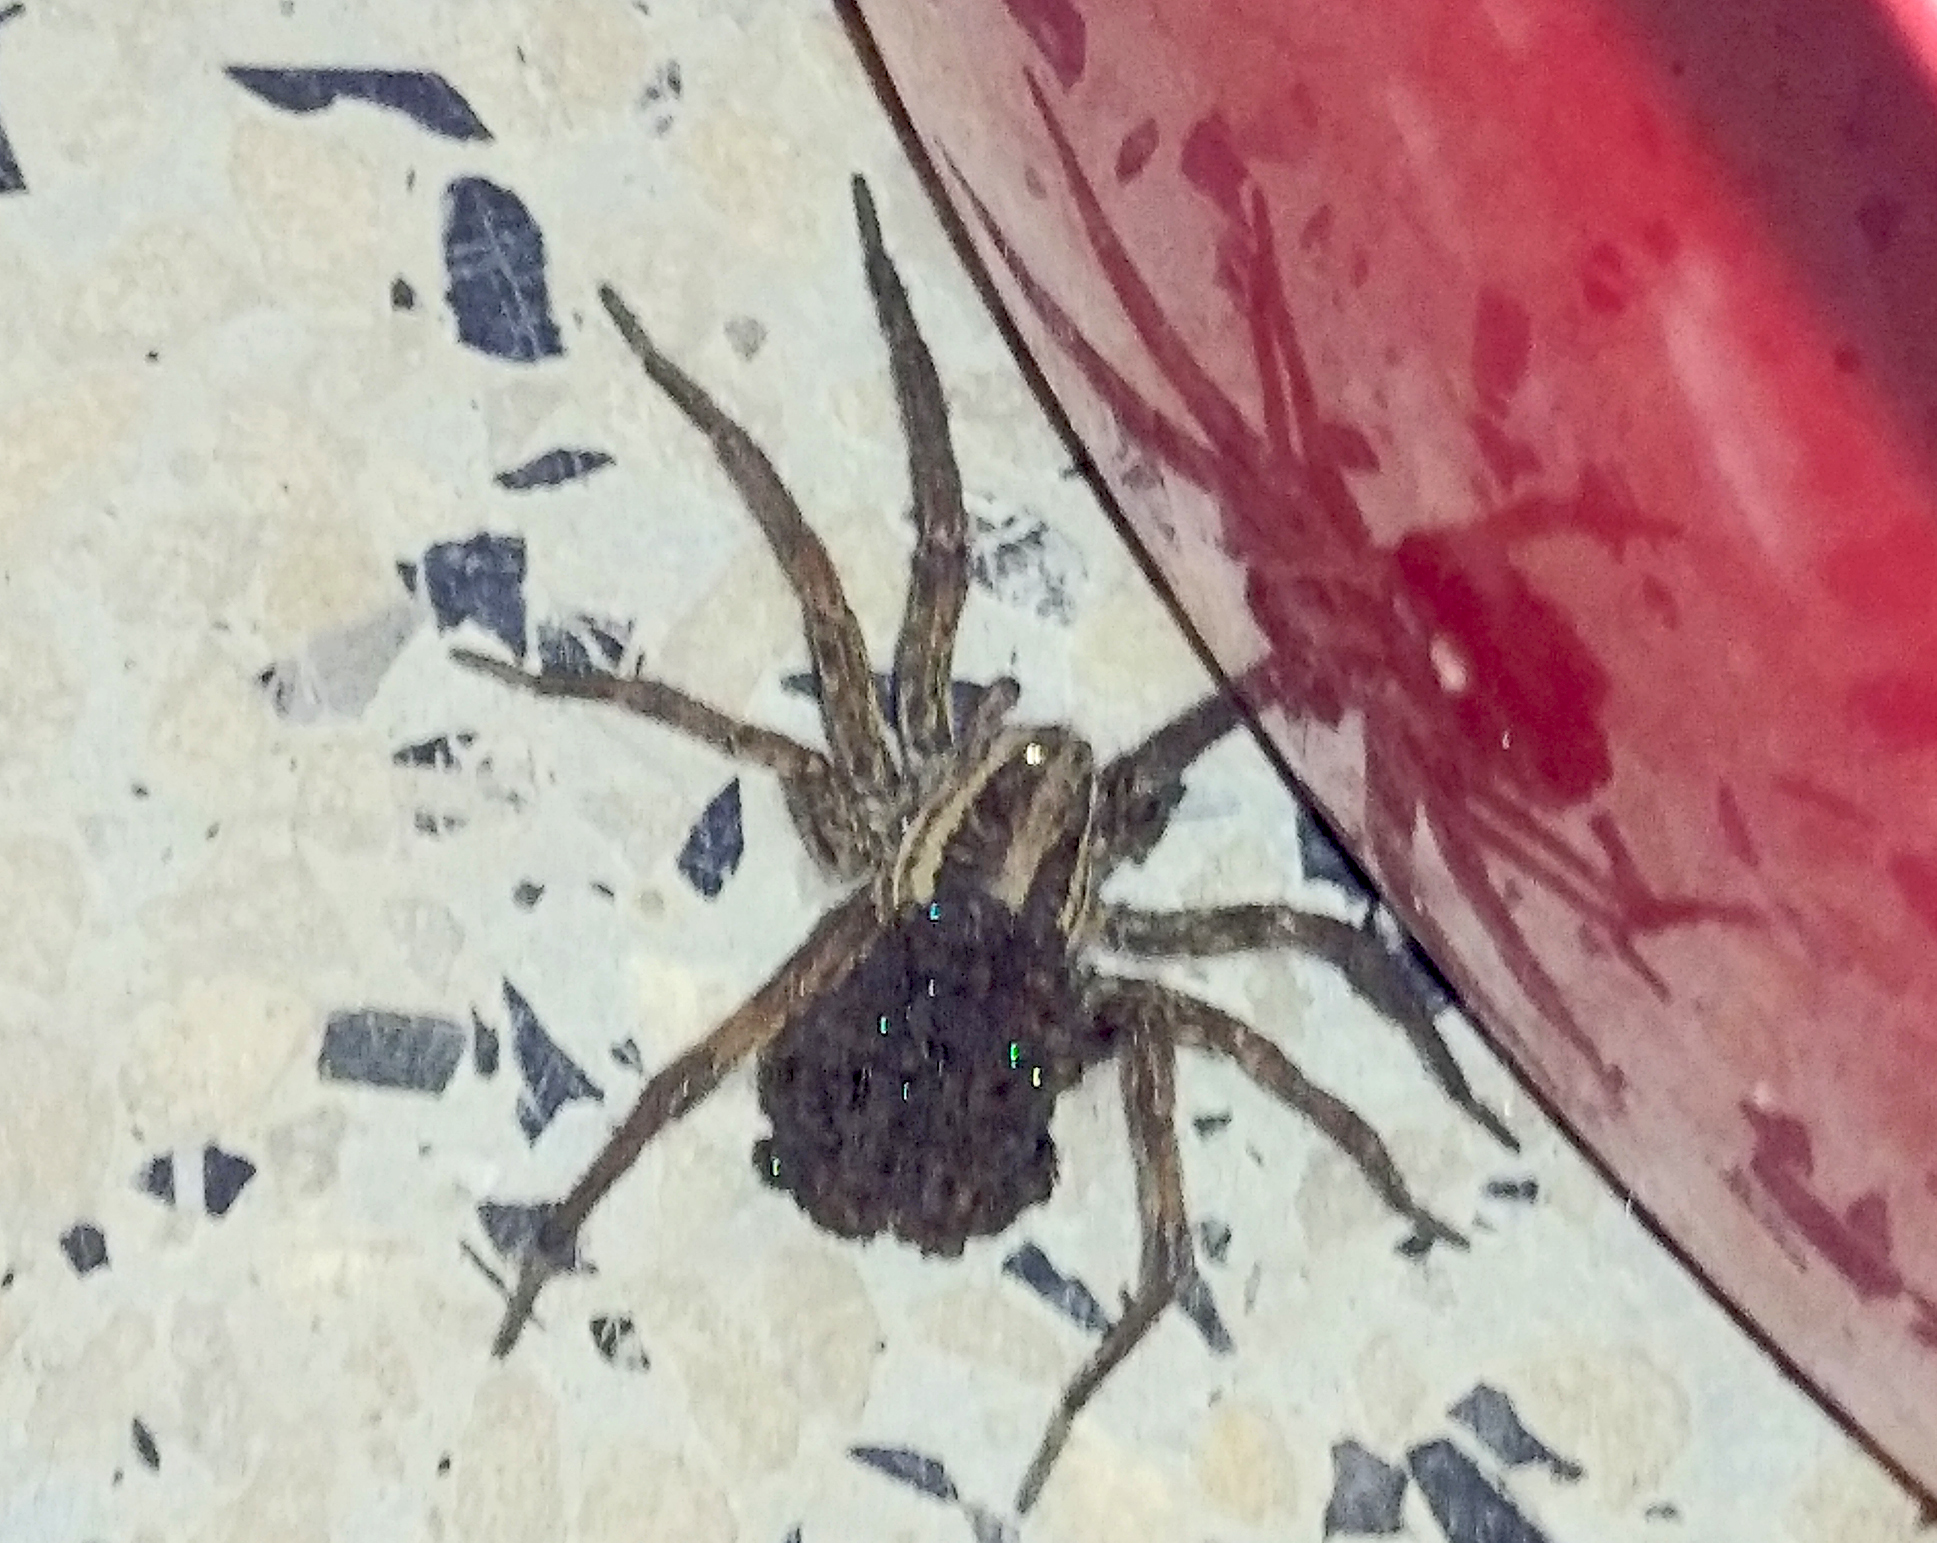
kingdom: Animalia
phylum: Arthropoda
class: Arachnida
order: Araneae
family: Lycosidae
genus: Hogna
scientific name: Hogna radiata
